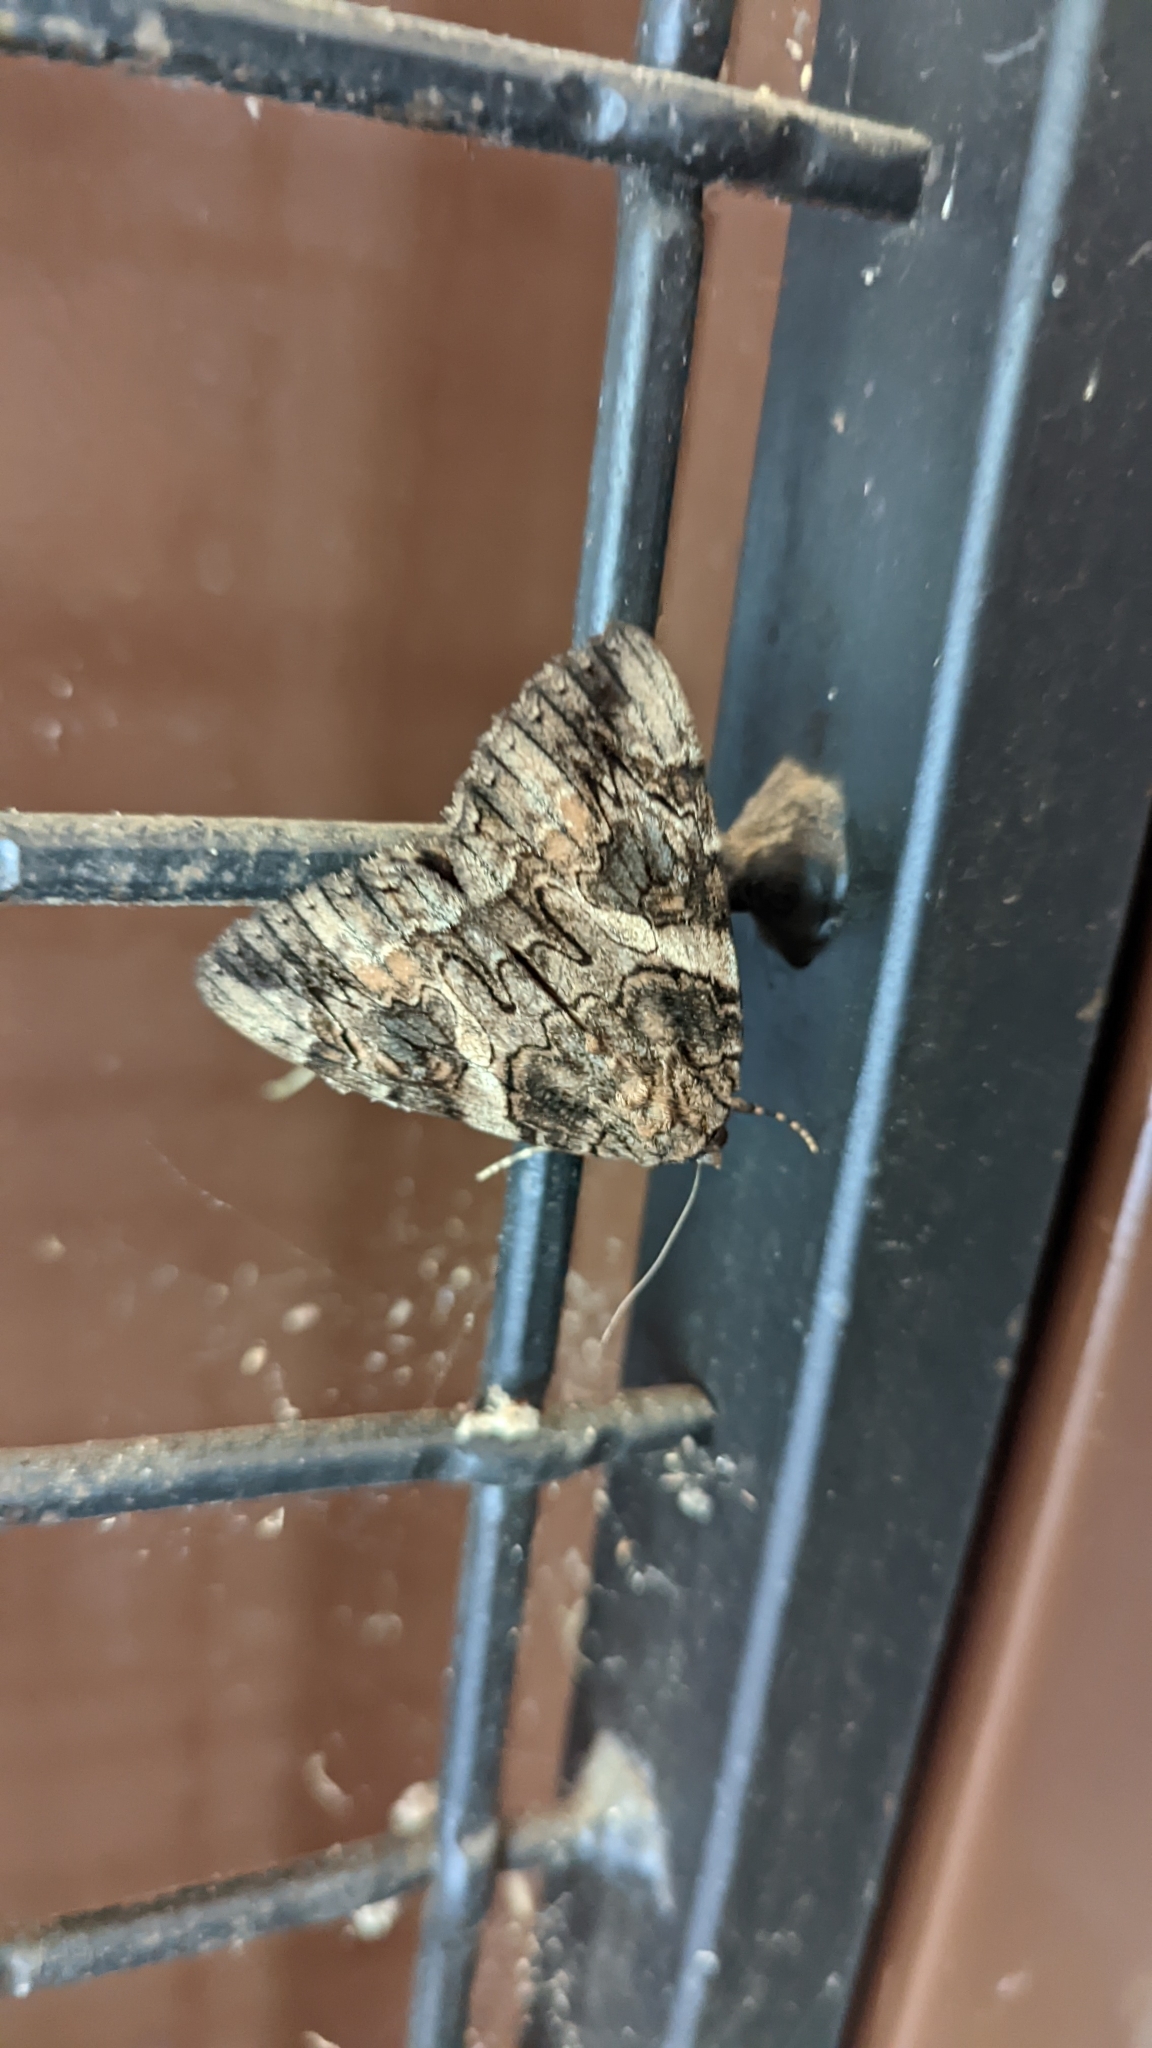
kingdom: Animalia
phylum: Arthropoda
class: Insecta
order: Lepidoptera
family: Erebidae
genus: Catocala
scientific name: Catocala piatrix
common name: The penitent underwing
